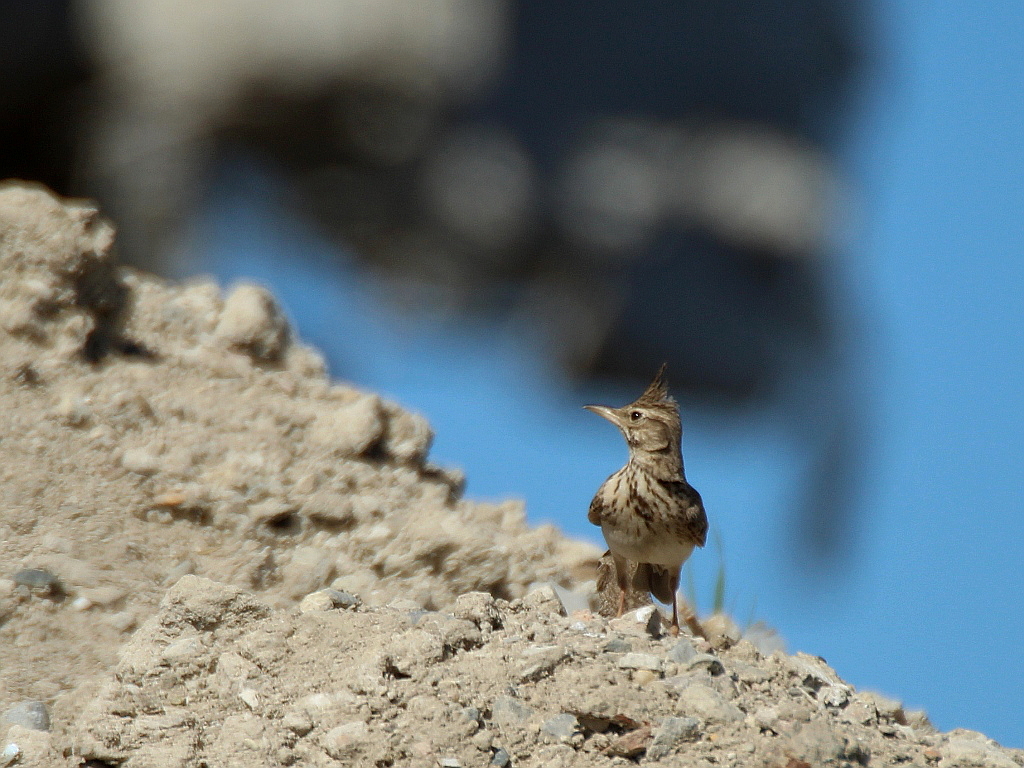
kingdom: Animalia
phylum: Chordata
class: Aves
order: Passeriformes
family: Alaudidae
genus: Galerida
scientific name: Galerida cristata
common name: Crested lark
